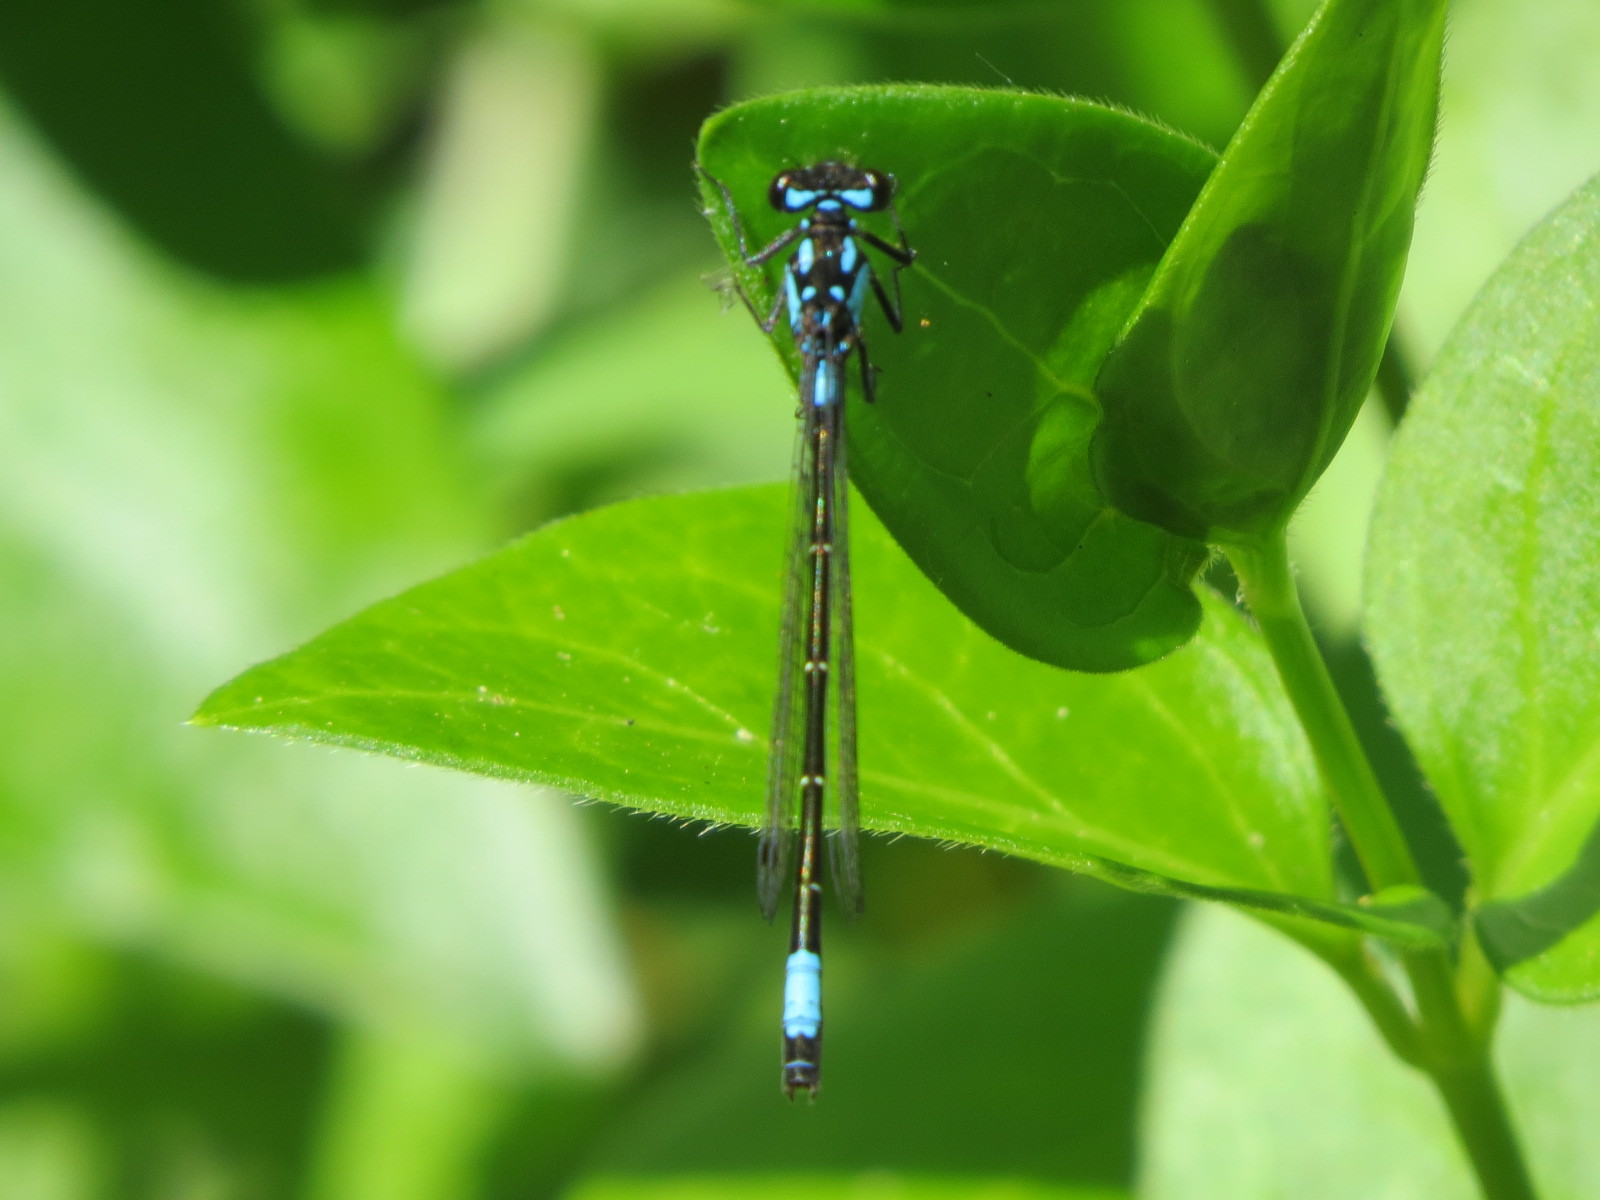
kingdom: Animalia
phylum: Arthropoda
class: Insecta
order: Odonata
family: Coenagrionidae
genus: Zoniagrion
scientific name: Zoniagrion exclamationis
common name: Exclamation damsel
